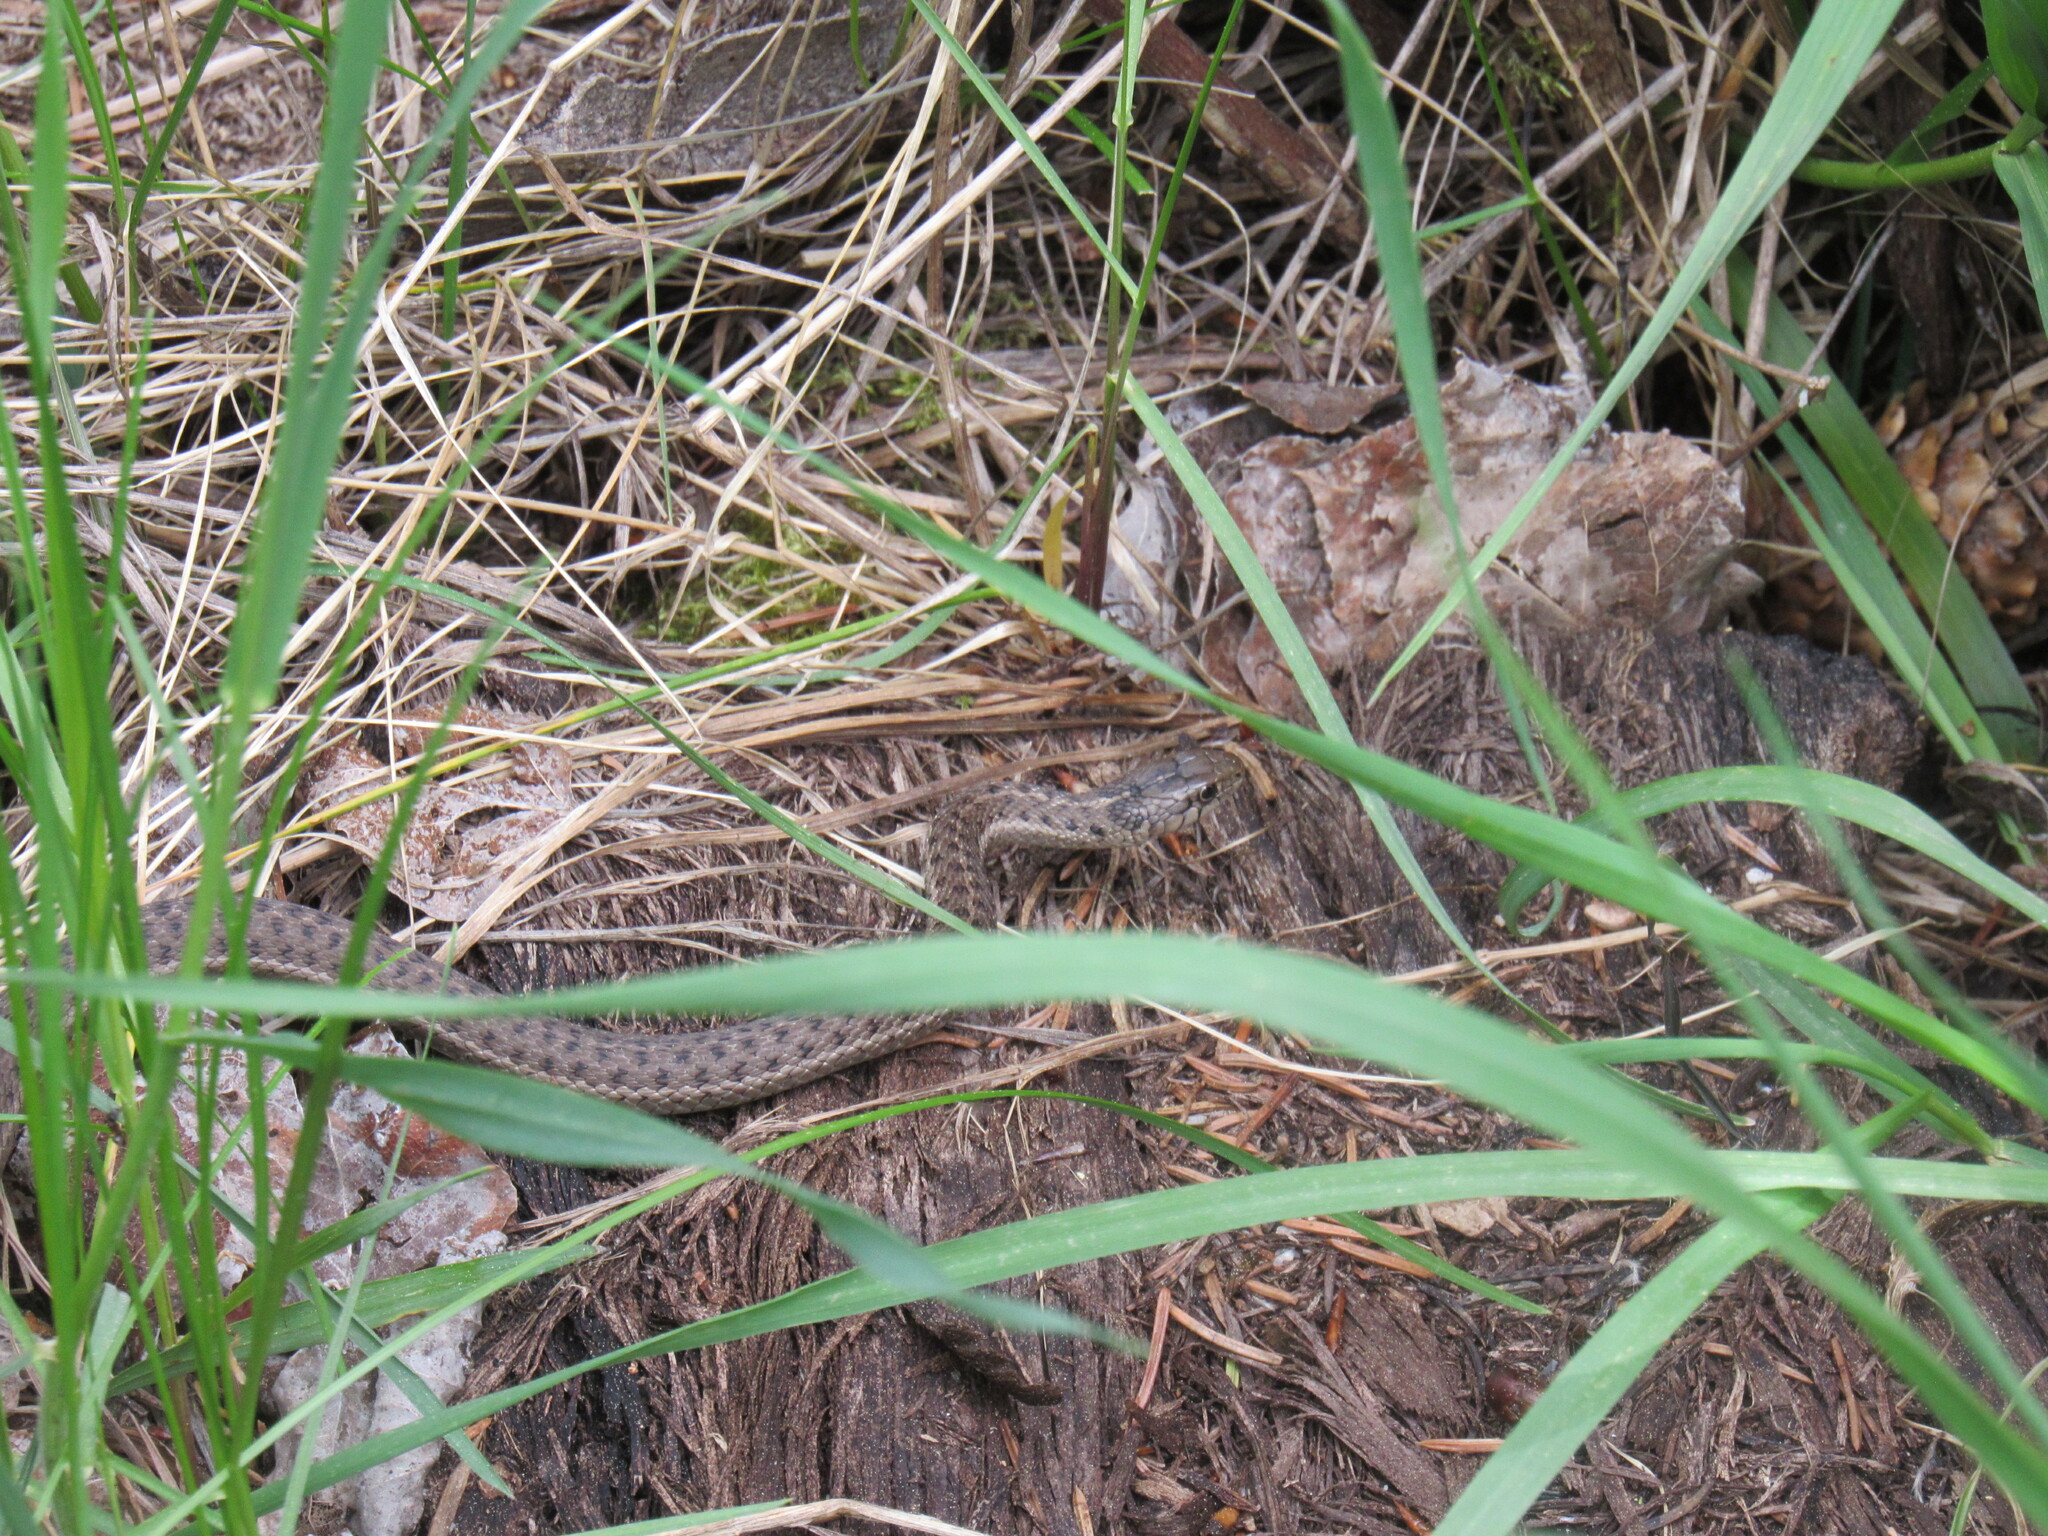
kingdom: Animalia
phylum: Chordata
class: Squamata
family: Colubridae
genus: Thamnophis
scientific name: Thamnophis elegans
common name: Western terrestrial garter snake
